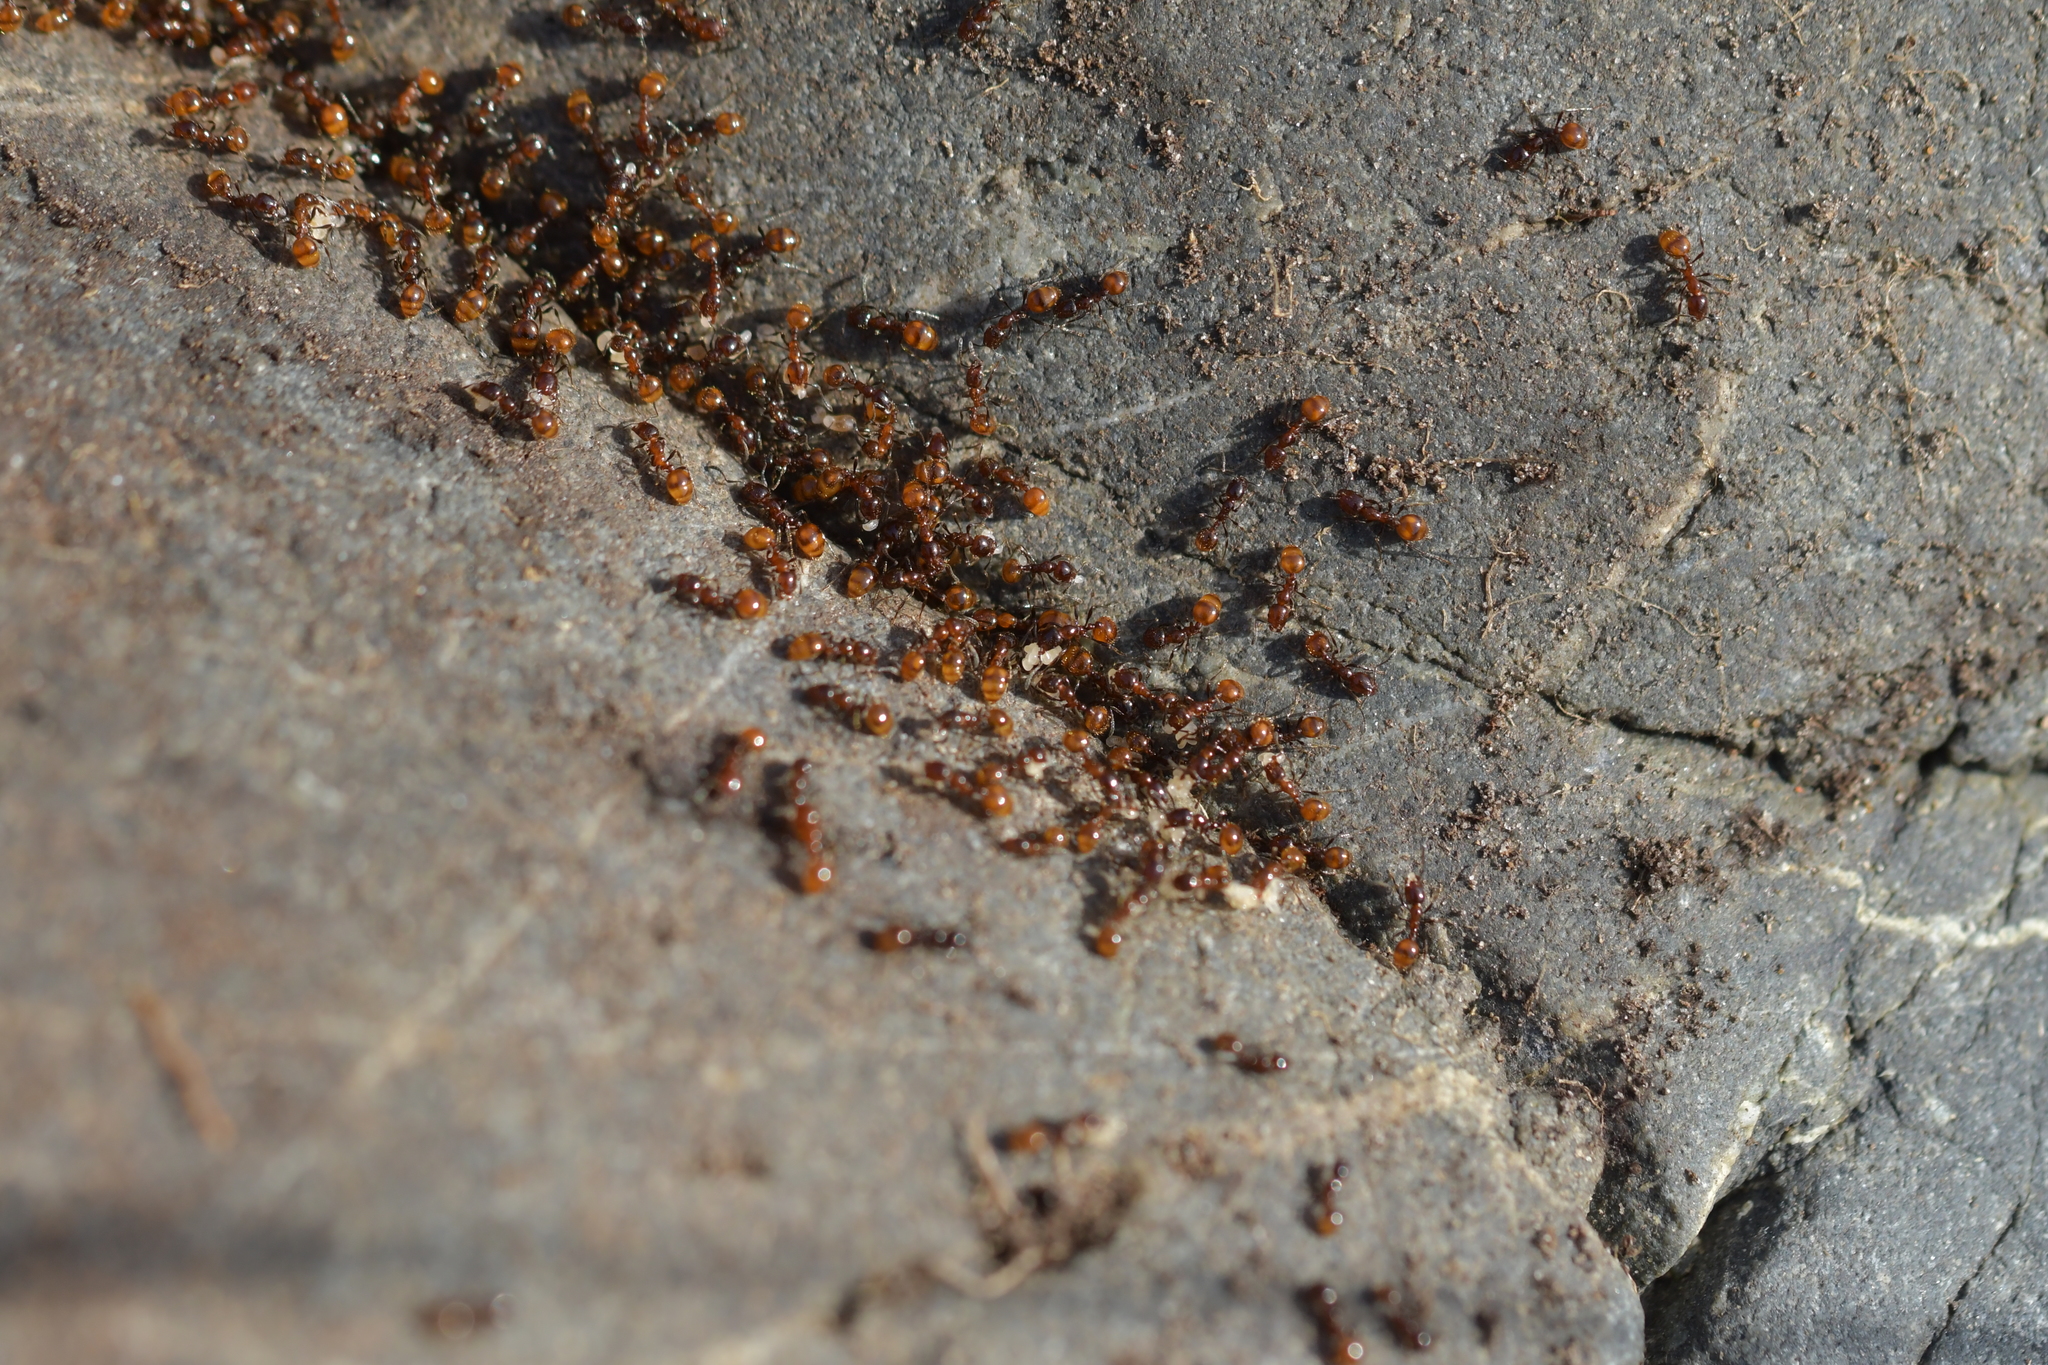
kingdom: Animalia
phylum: Arthropoda
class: Insecta
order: Hymenoptera
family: Formicidae
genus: Monomorium
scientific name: Monomorium antarcticum
